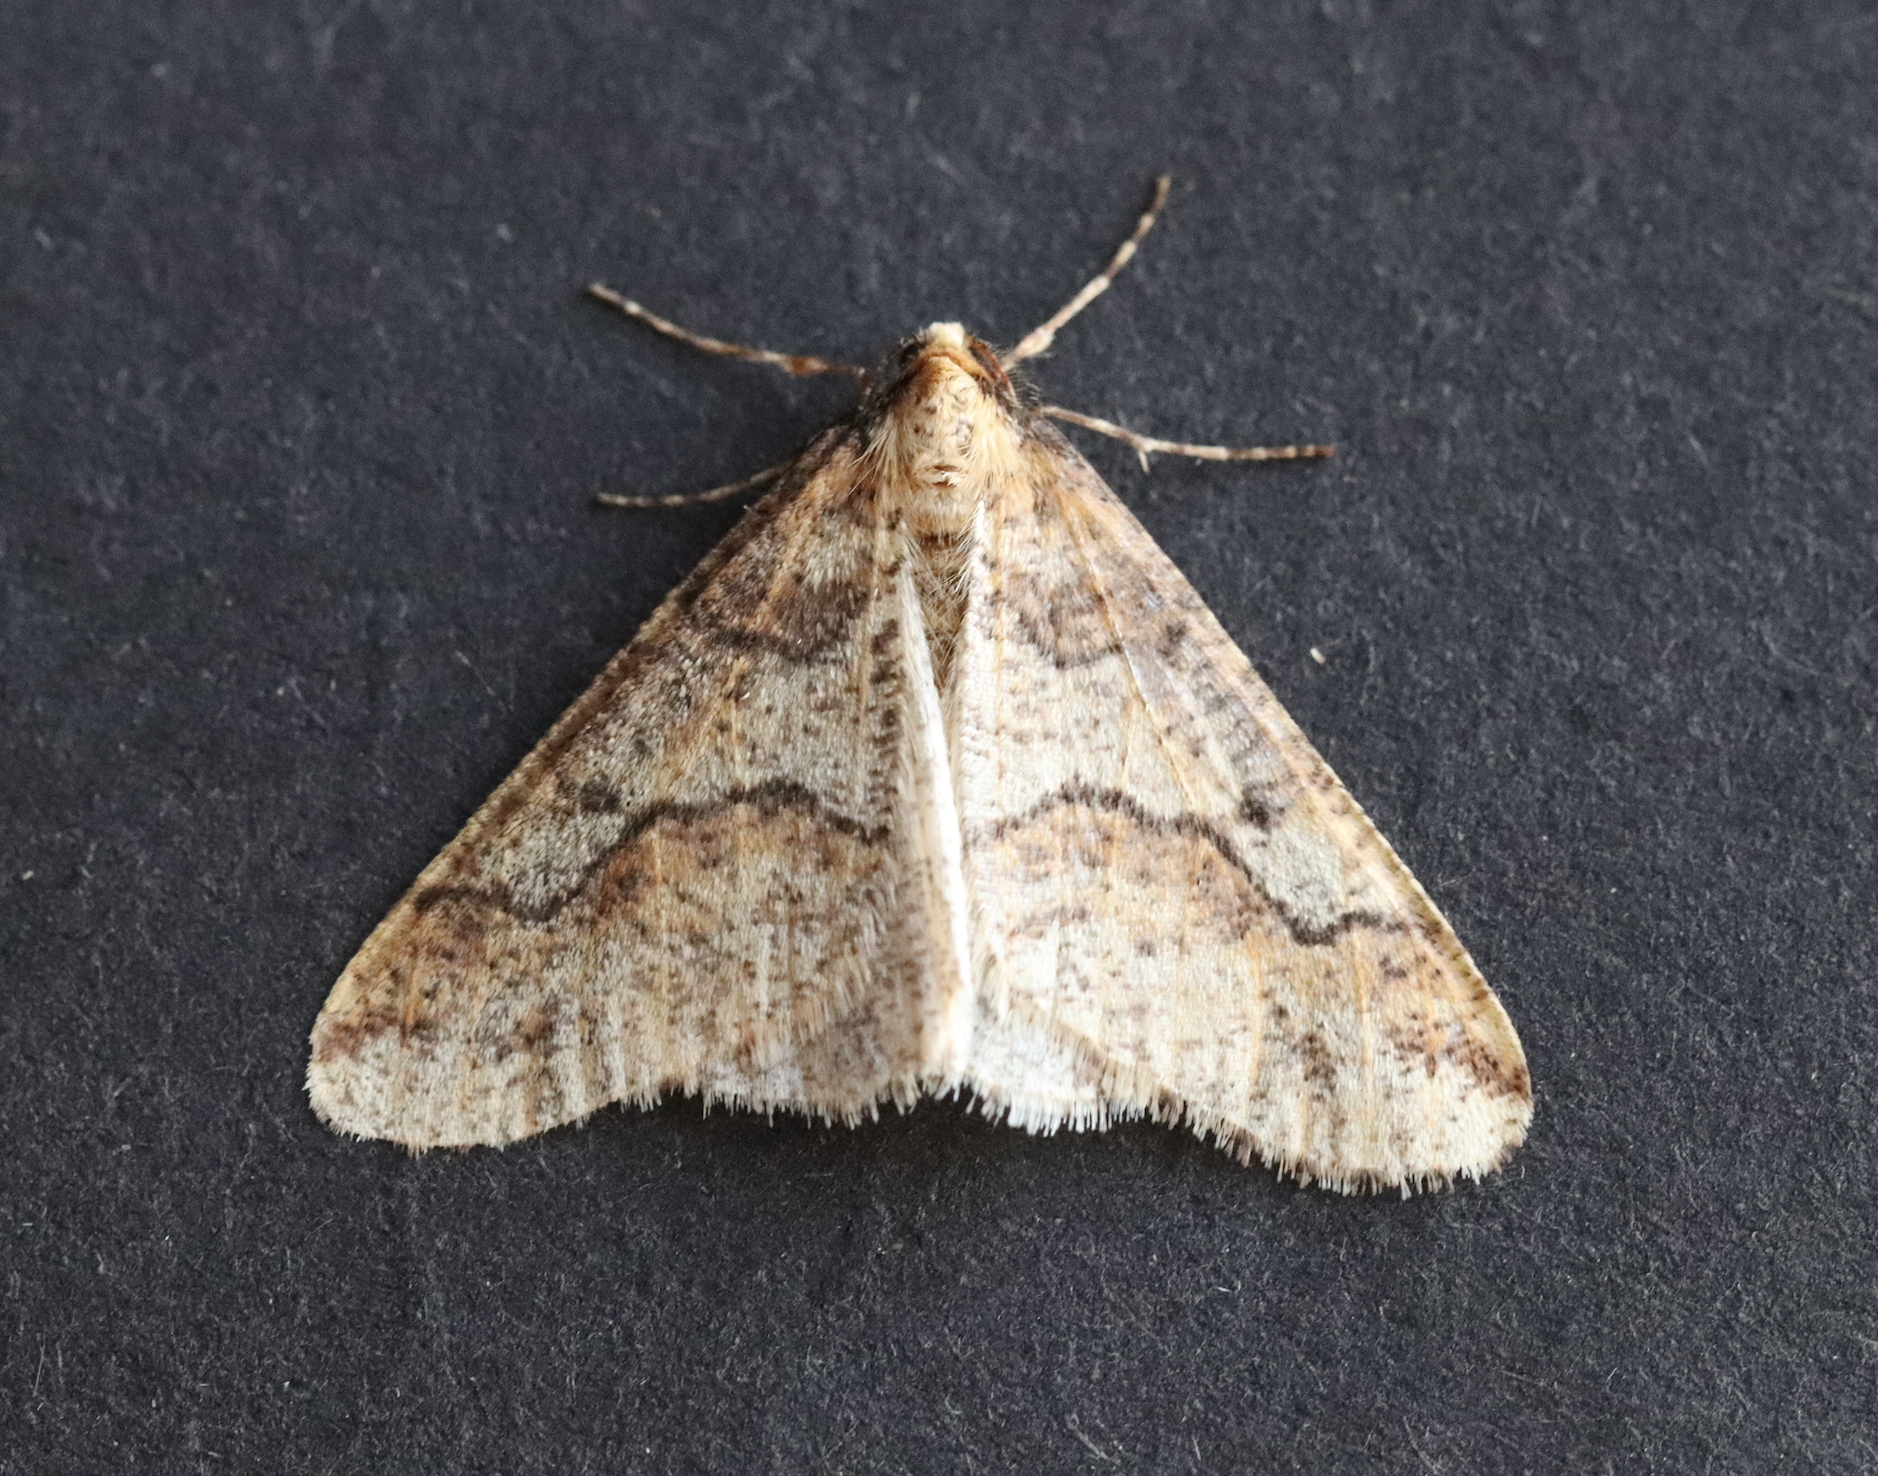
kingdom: Animalia
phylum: Arthropoda
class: Insecta
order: Lepidoptera
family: Geometridae
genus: Erannis
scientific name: Erannis defoliaria
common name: Mottled umber
